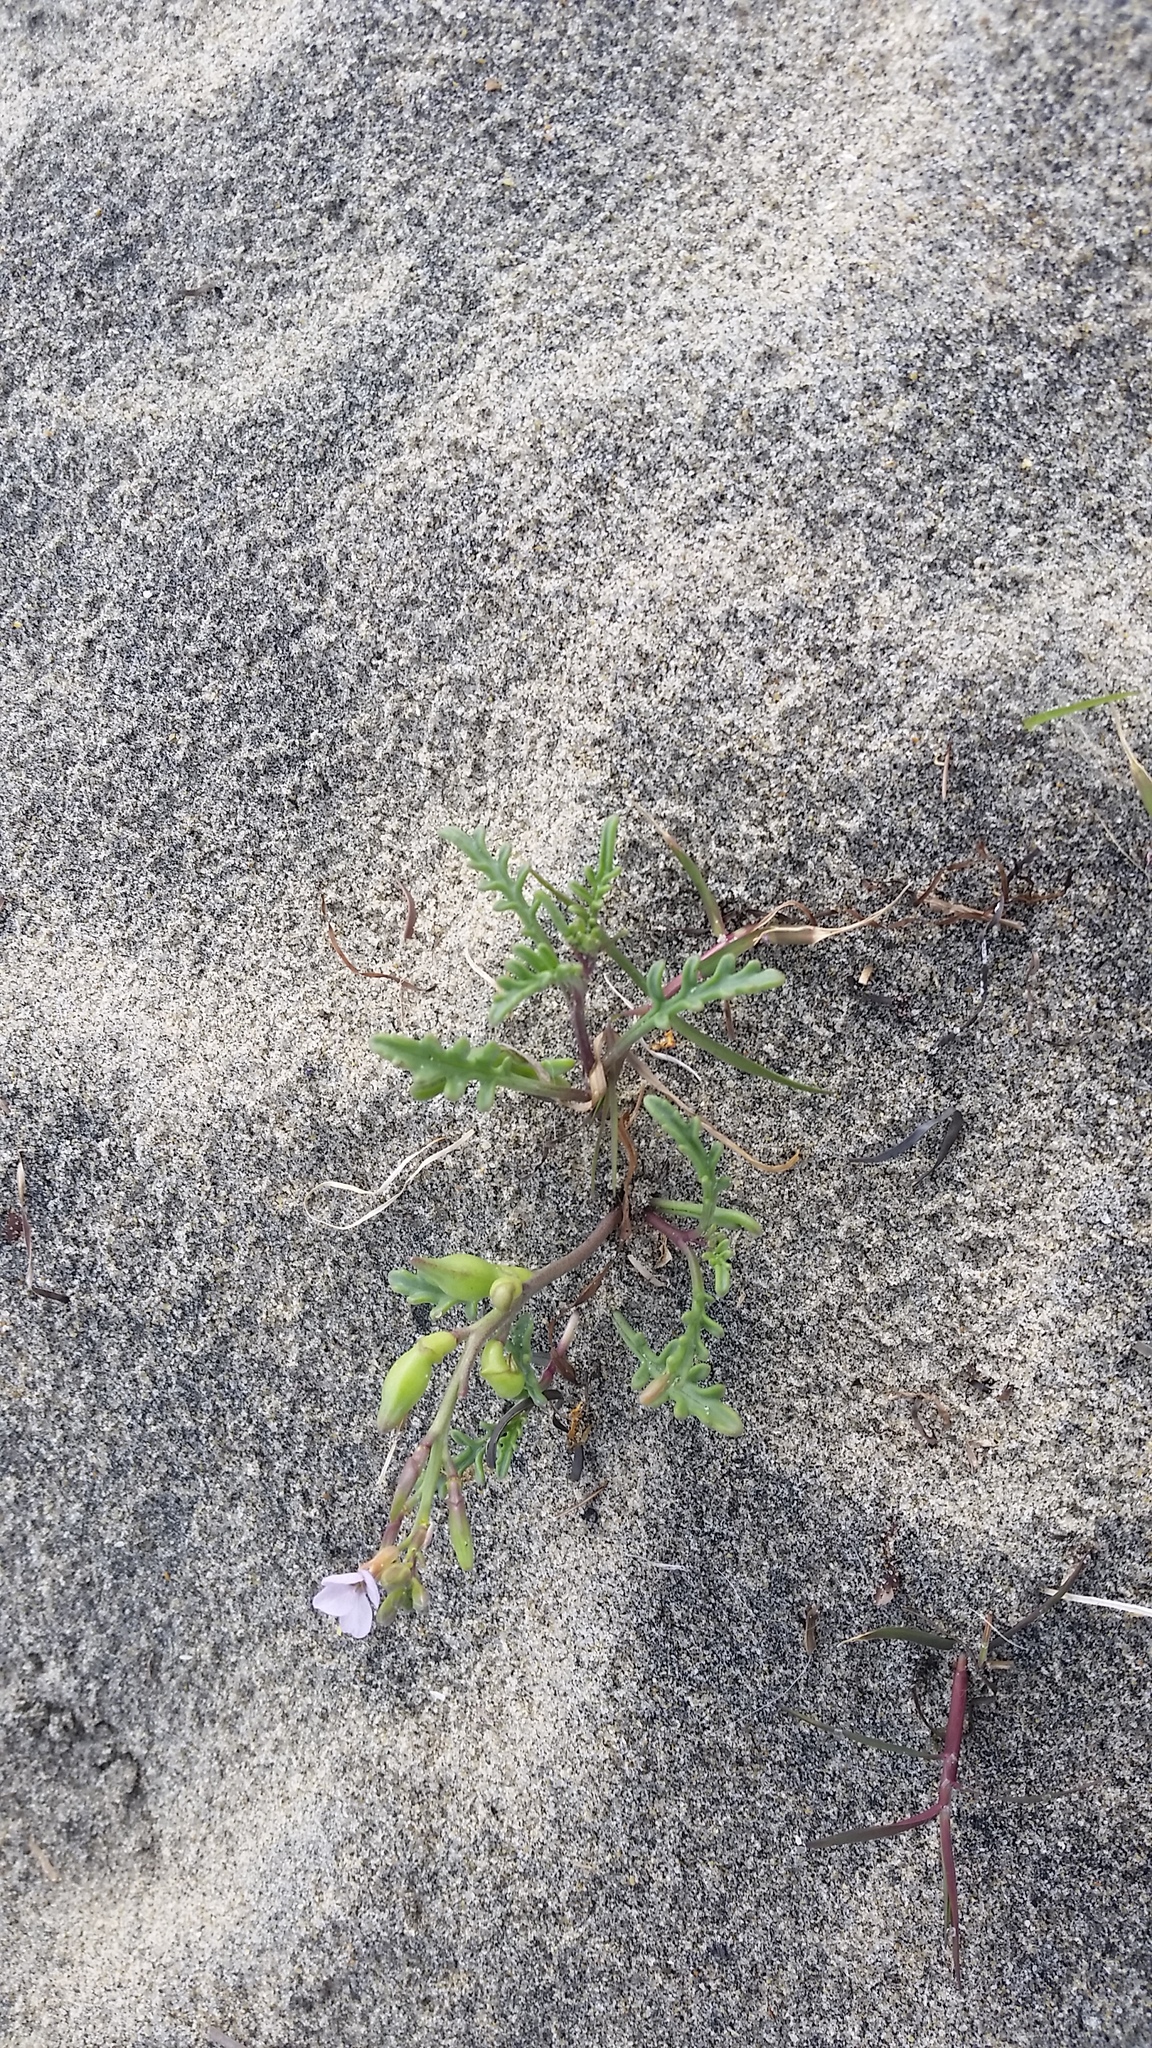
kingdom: Plantae
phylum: Tracheophyta
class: Magnoliopsida
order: Brassicales
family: Brassicaceae
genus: Cakile
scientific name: Cakile maritima
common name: Sea rocket
